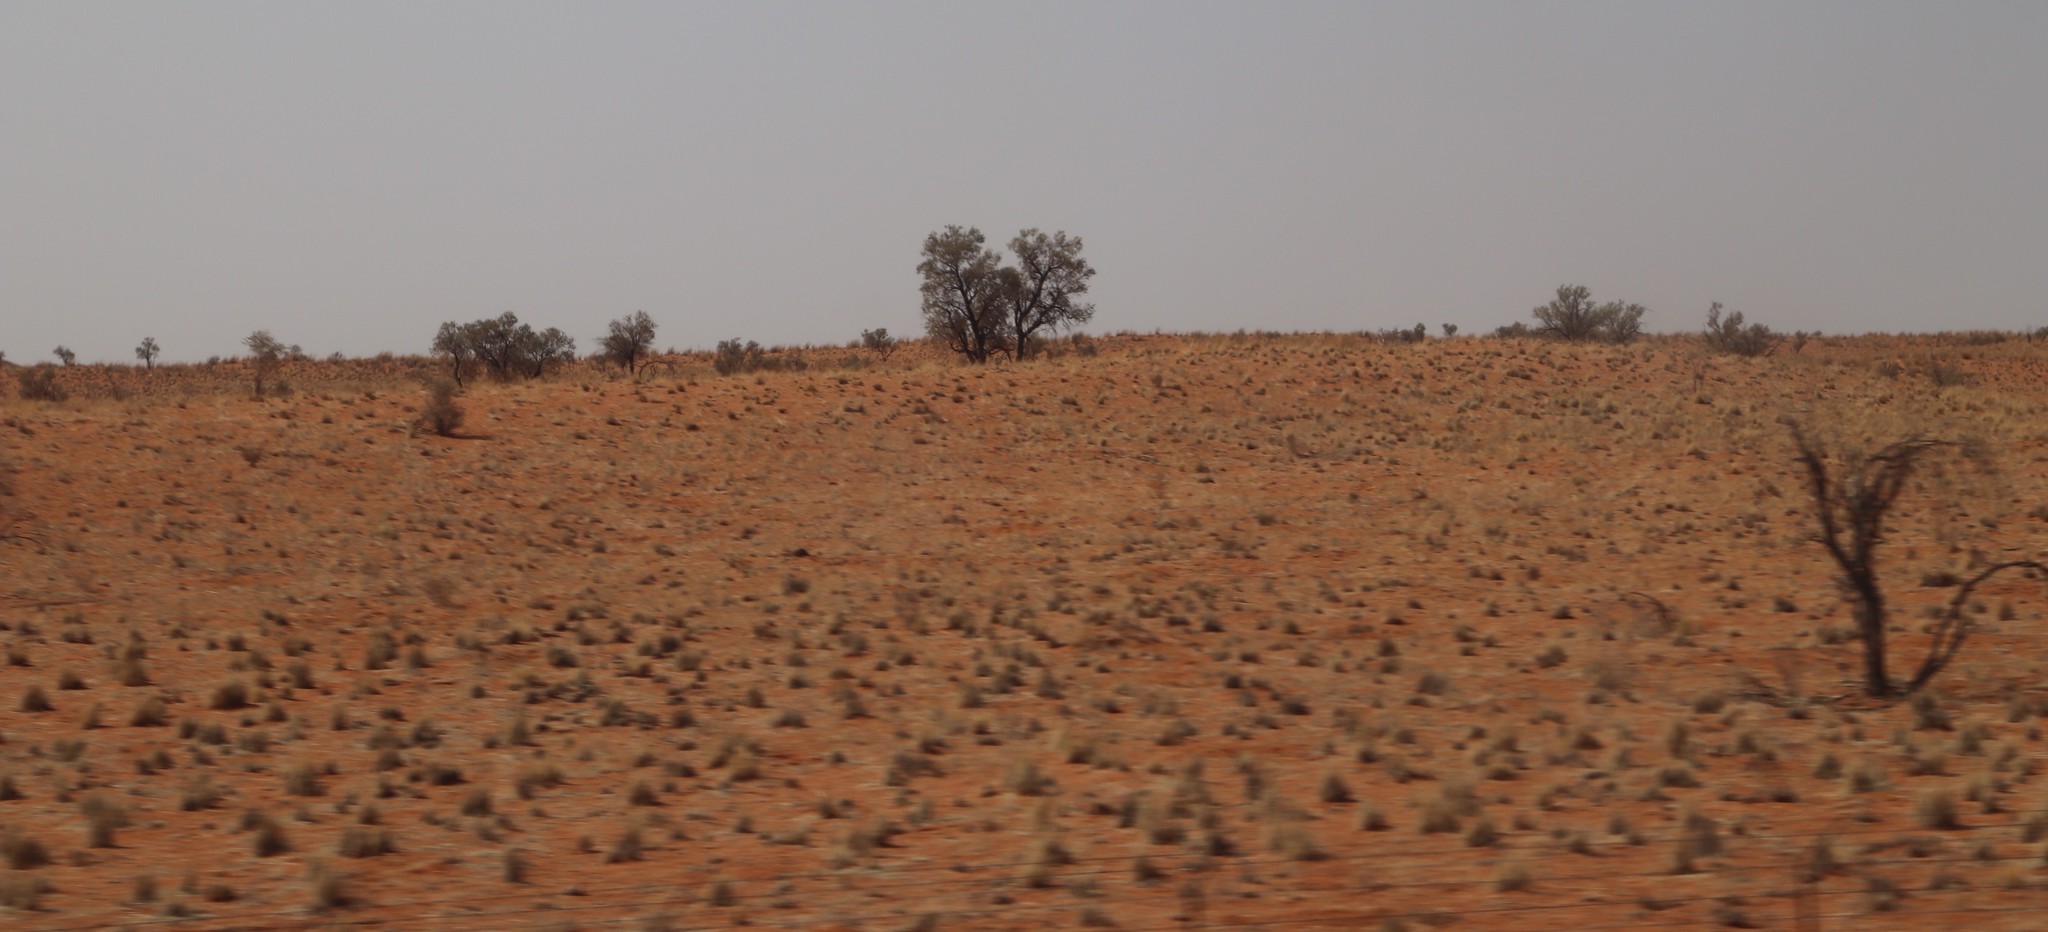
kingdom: Plantae
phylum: Tracheophyta
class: Magnoliopsida
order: Fabales
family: Fabaceae
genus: Vachellia
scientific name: Vachellia haematoxylon
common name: Grey camel thorn
